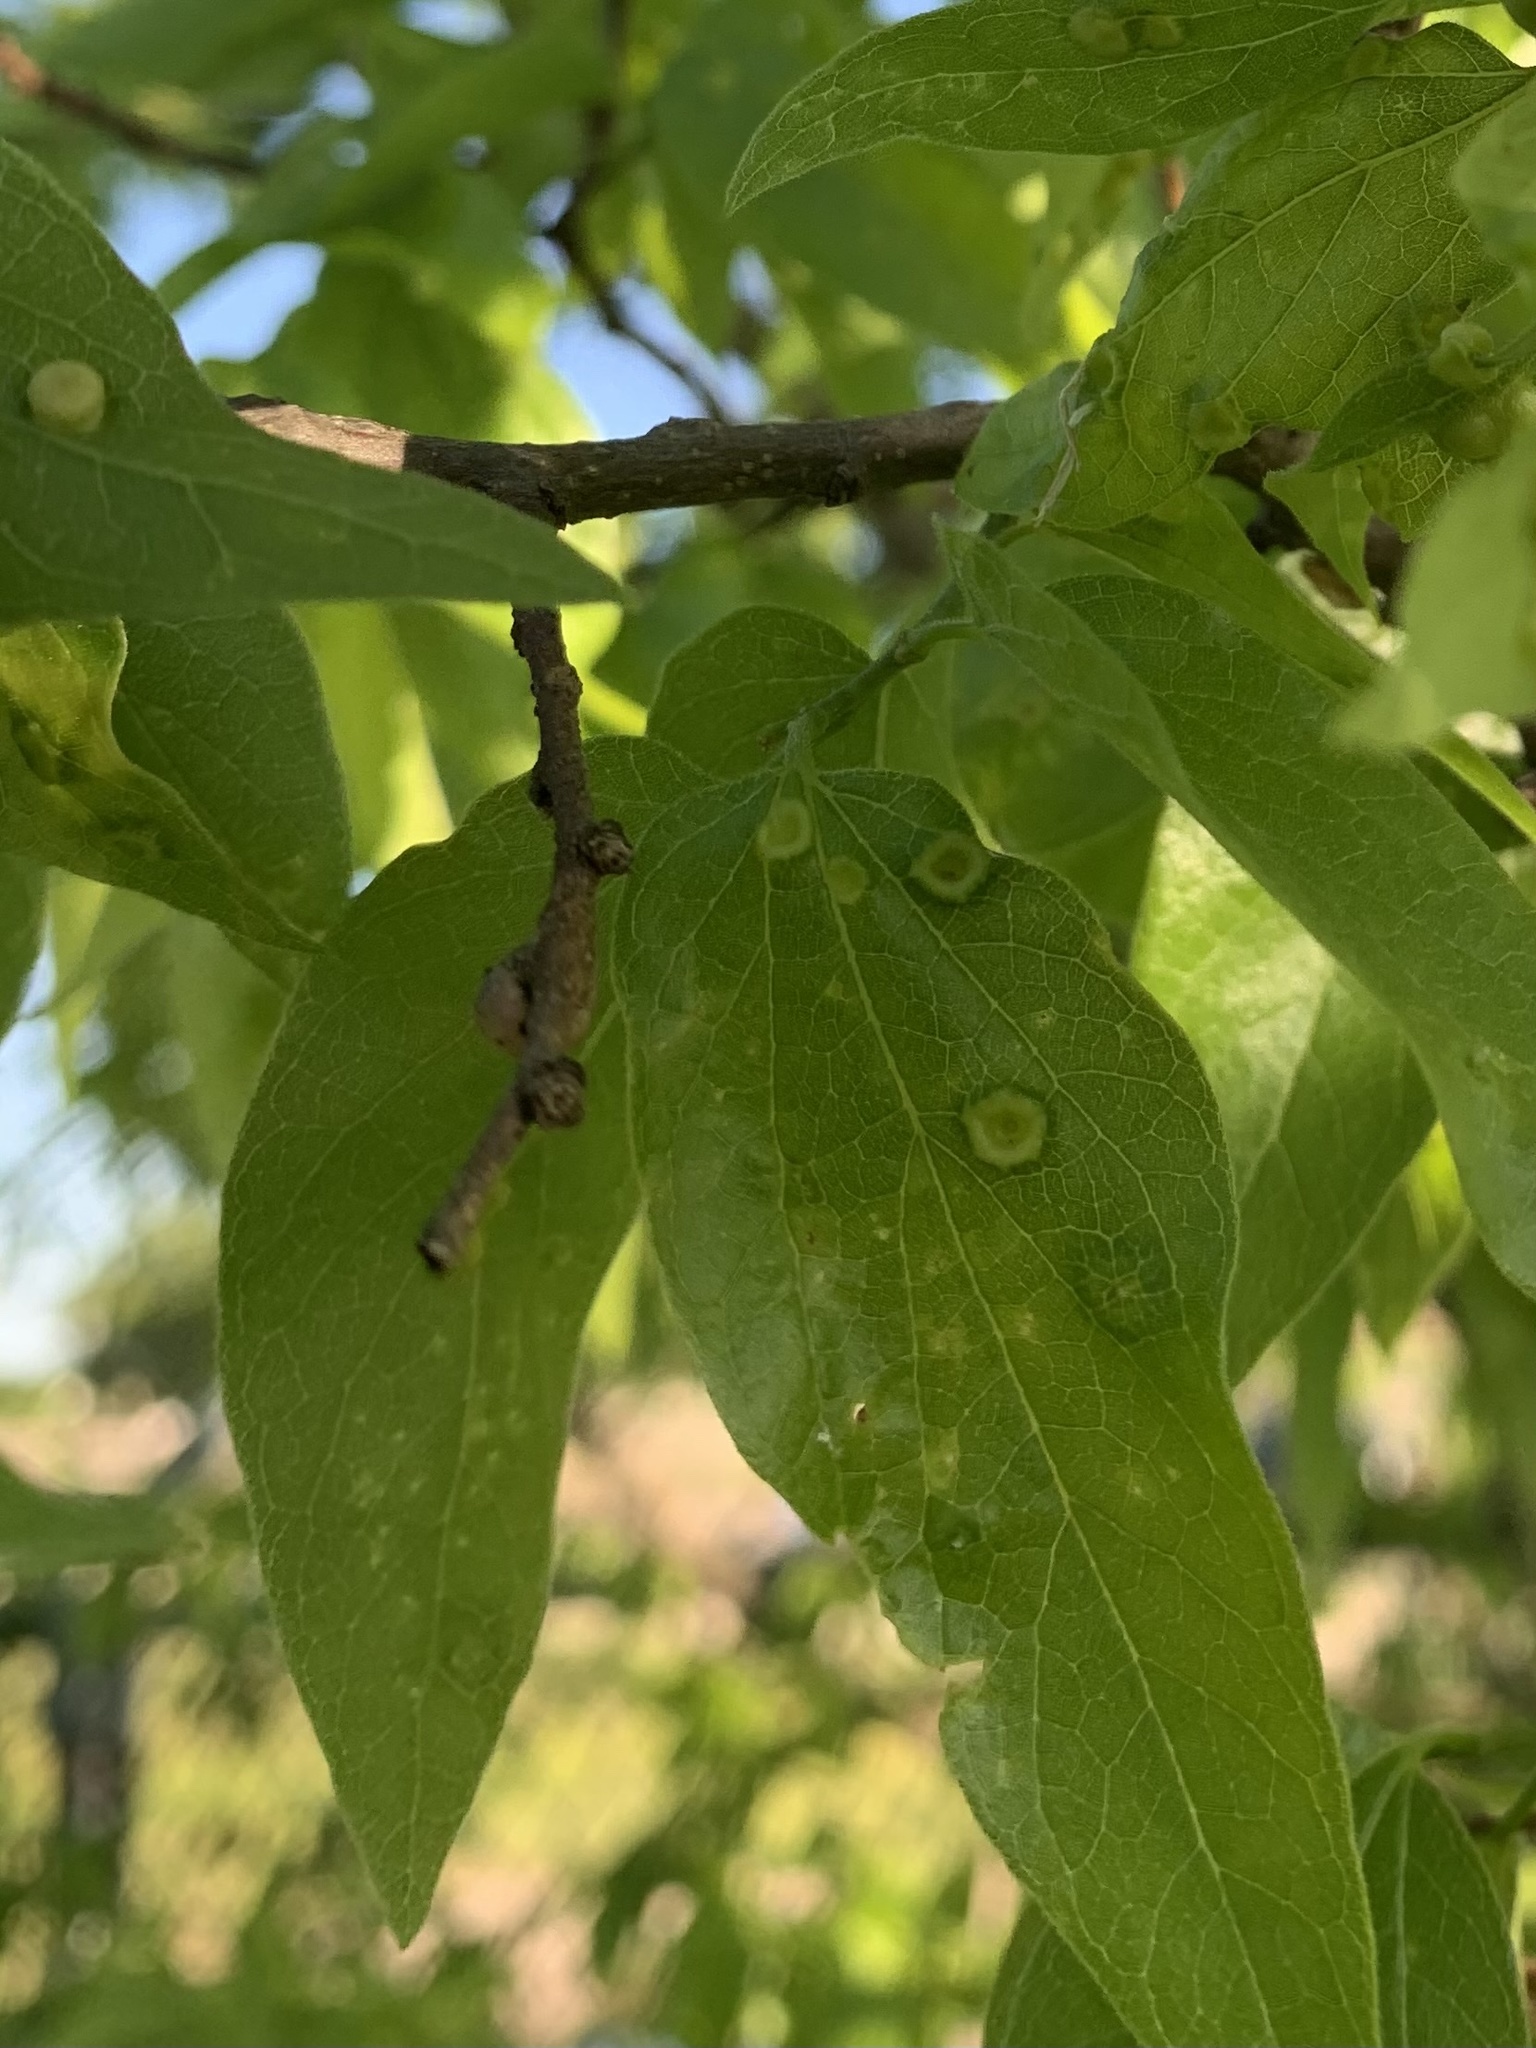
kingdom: Animalia
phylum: Arthropoda
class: Insecta
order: Hemiptera
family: Aphalaridae
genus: Pachypsylla
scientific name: Pachypsylla celtidismamma
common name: Hackberry nipplegall psyllid
